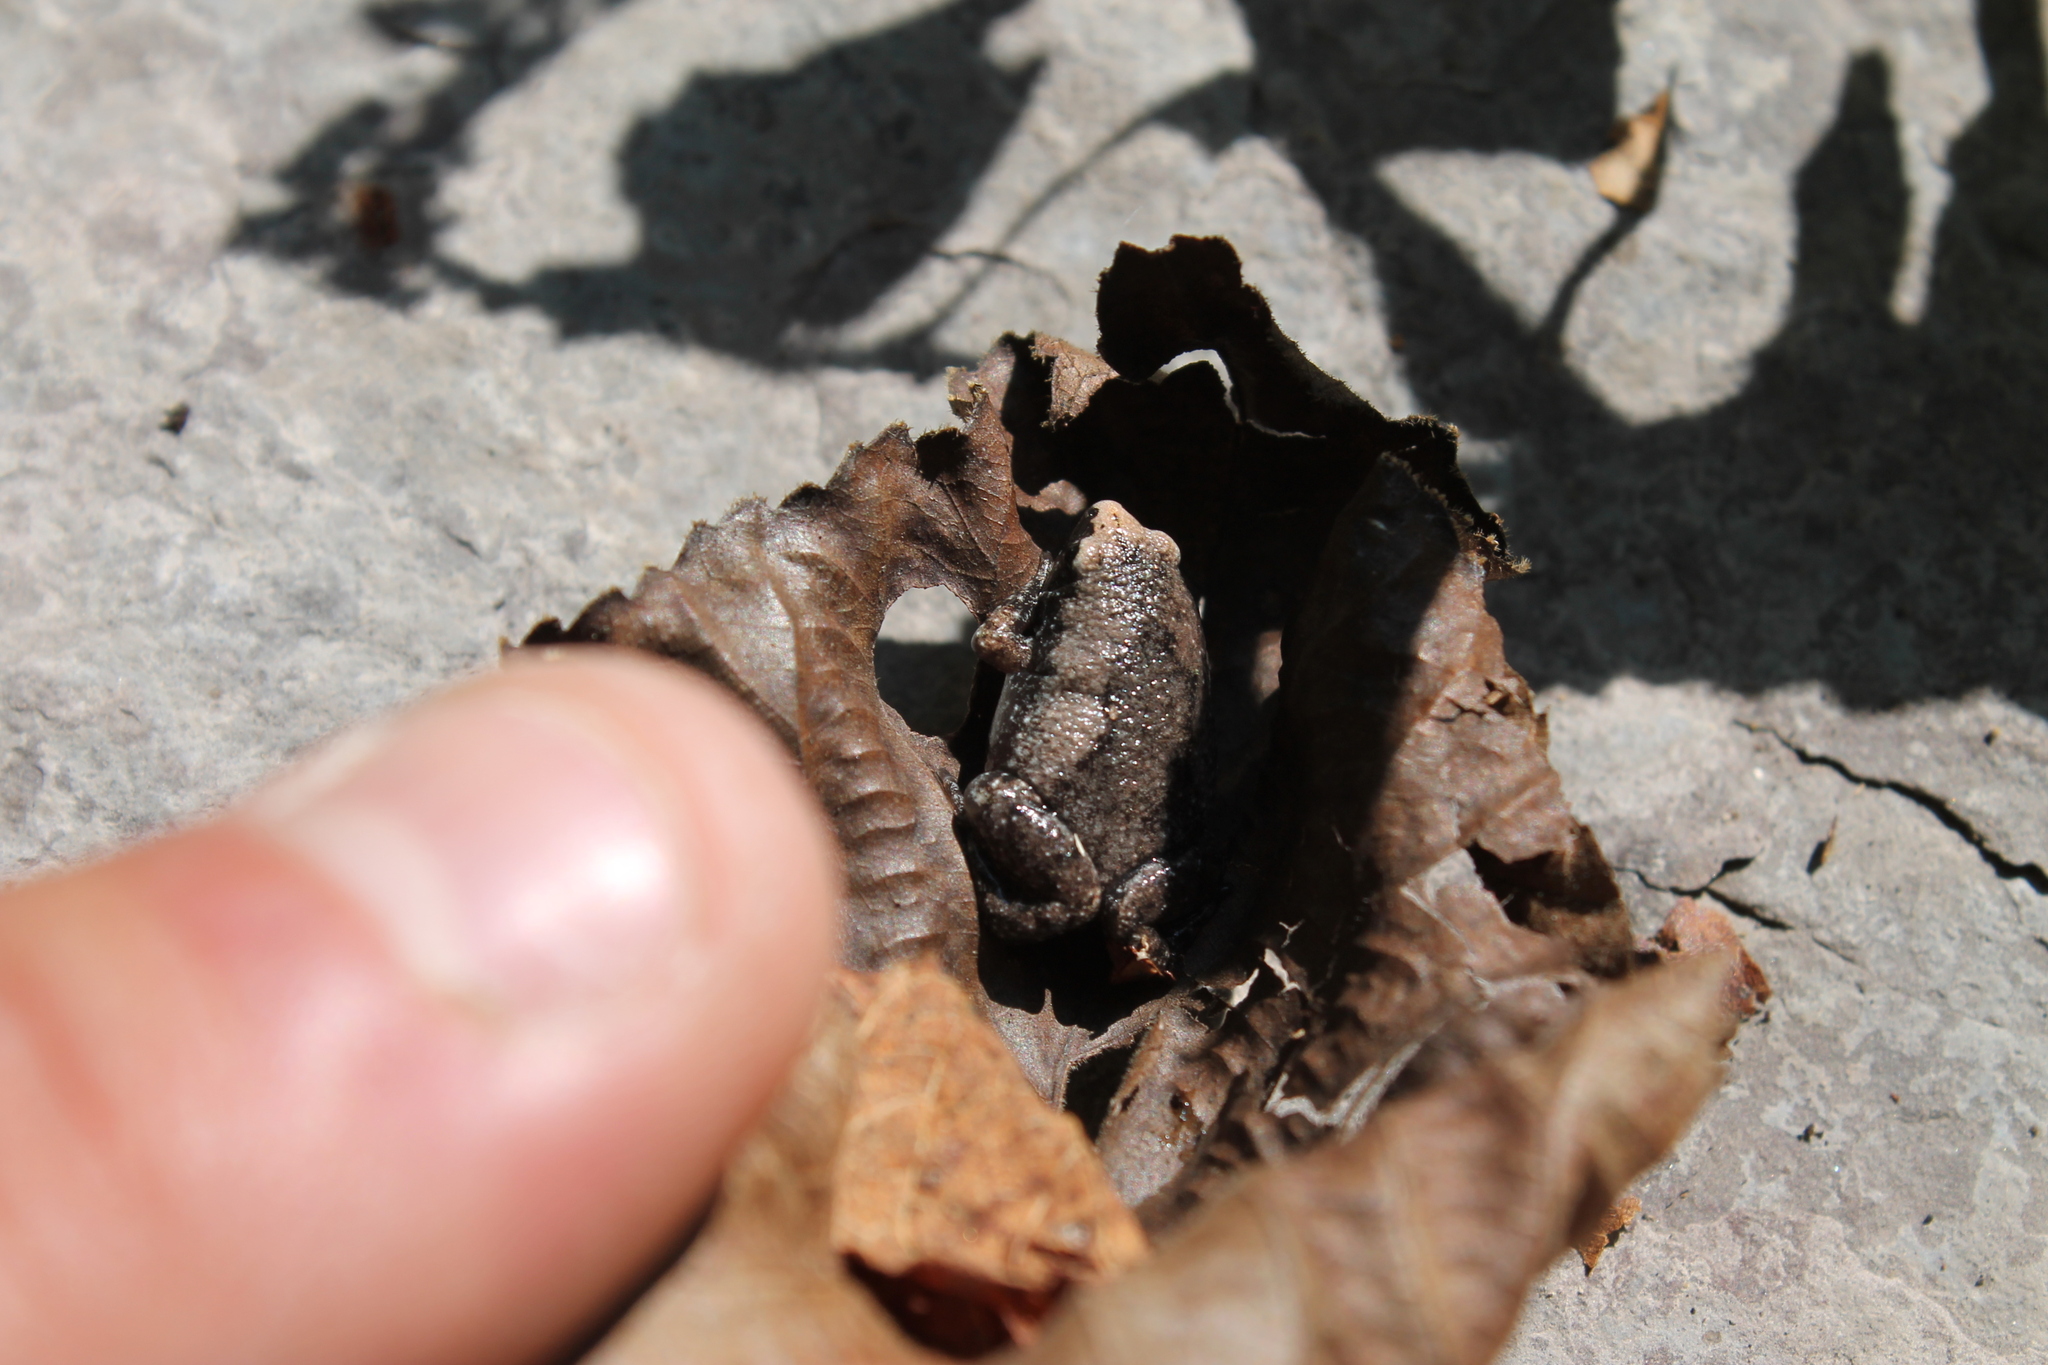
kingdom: Animalia
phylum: Chordata
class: Amphibia
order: Anura
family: Microhylidae
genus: Gastrophryne
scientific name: Gastrophryne carolinensis
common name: Eastern narrowmouth toad
